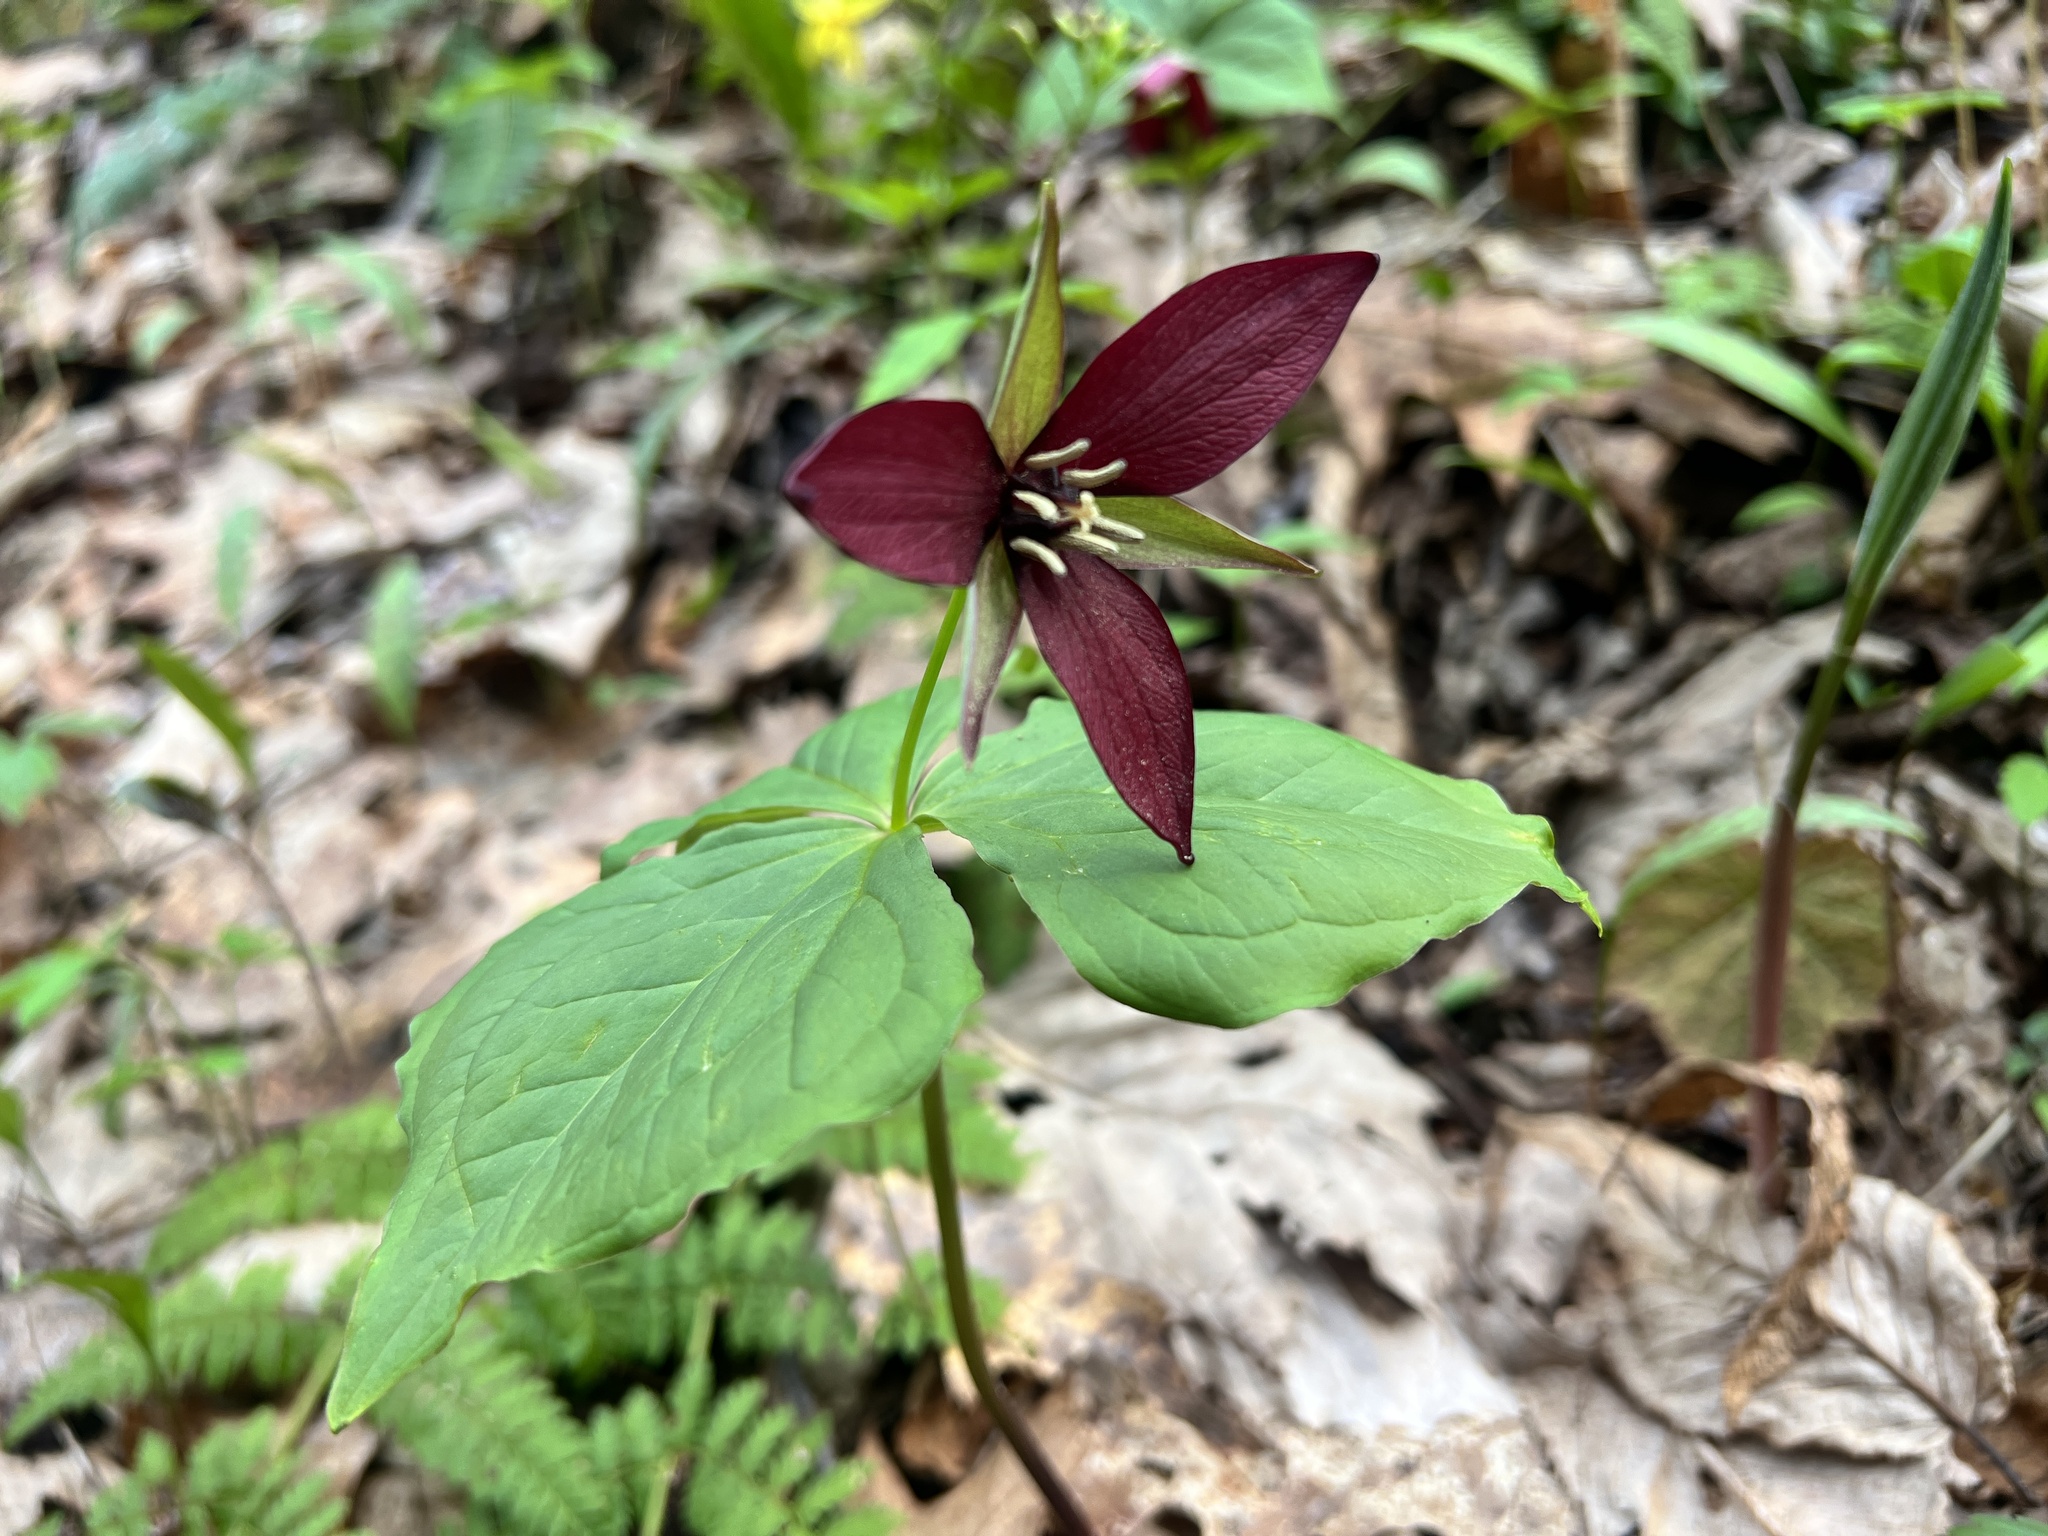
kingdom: Plantae
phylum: Tracheophyta
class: Liliopsida
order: Liliales
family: Melanthiaceae
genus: Trillium
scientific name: Trillium erectum
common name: Purple trillium
